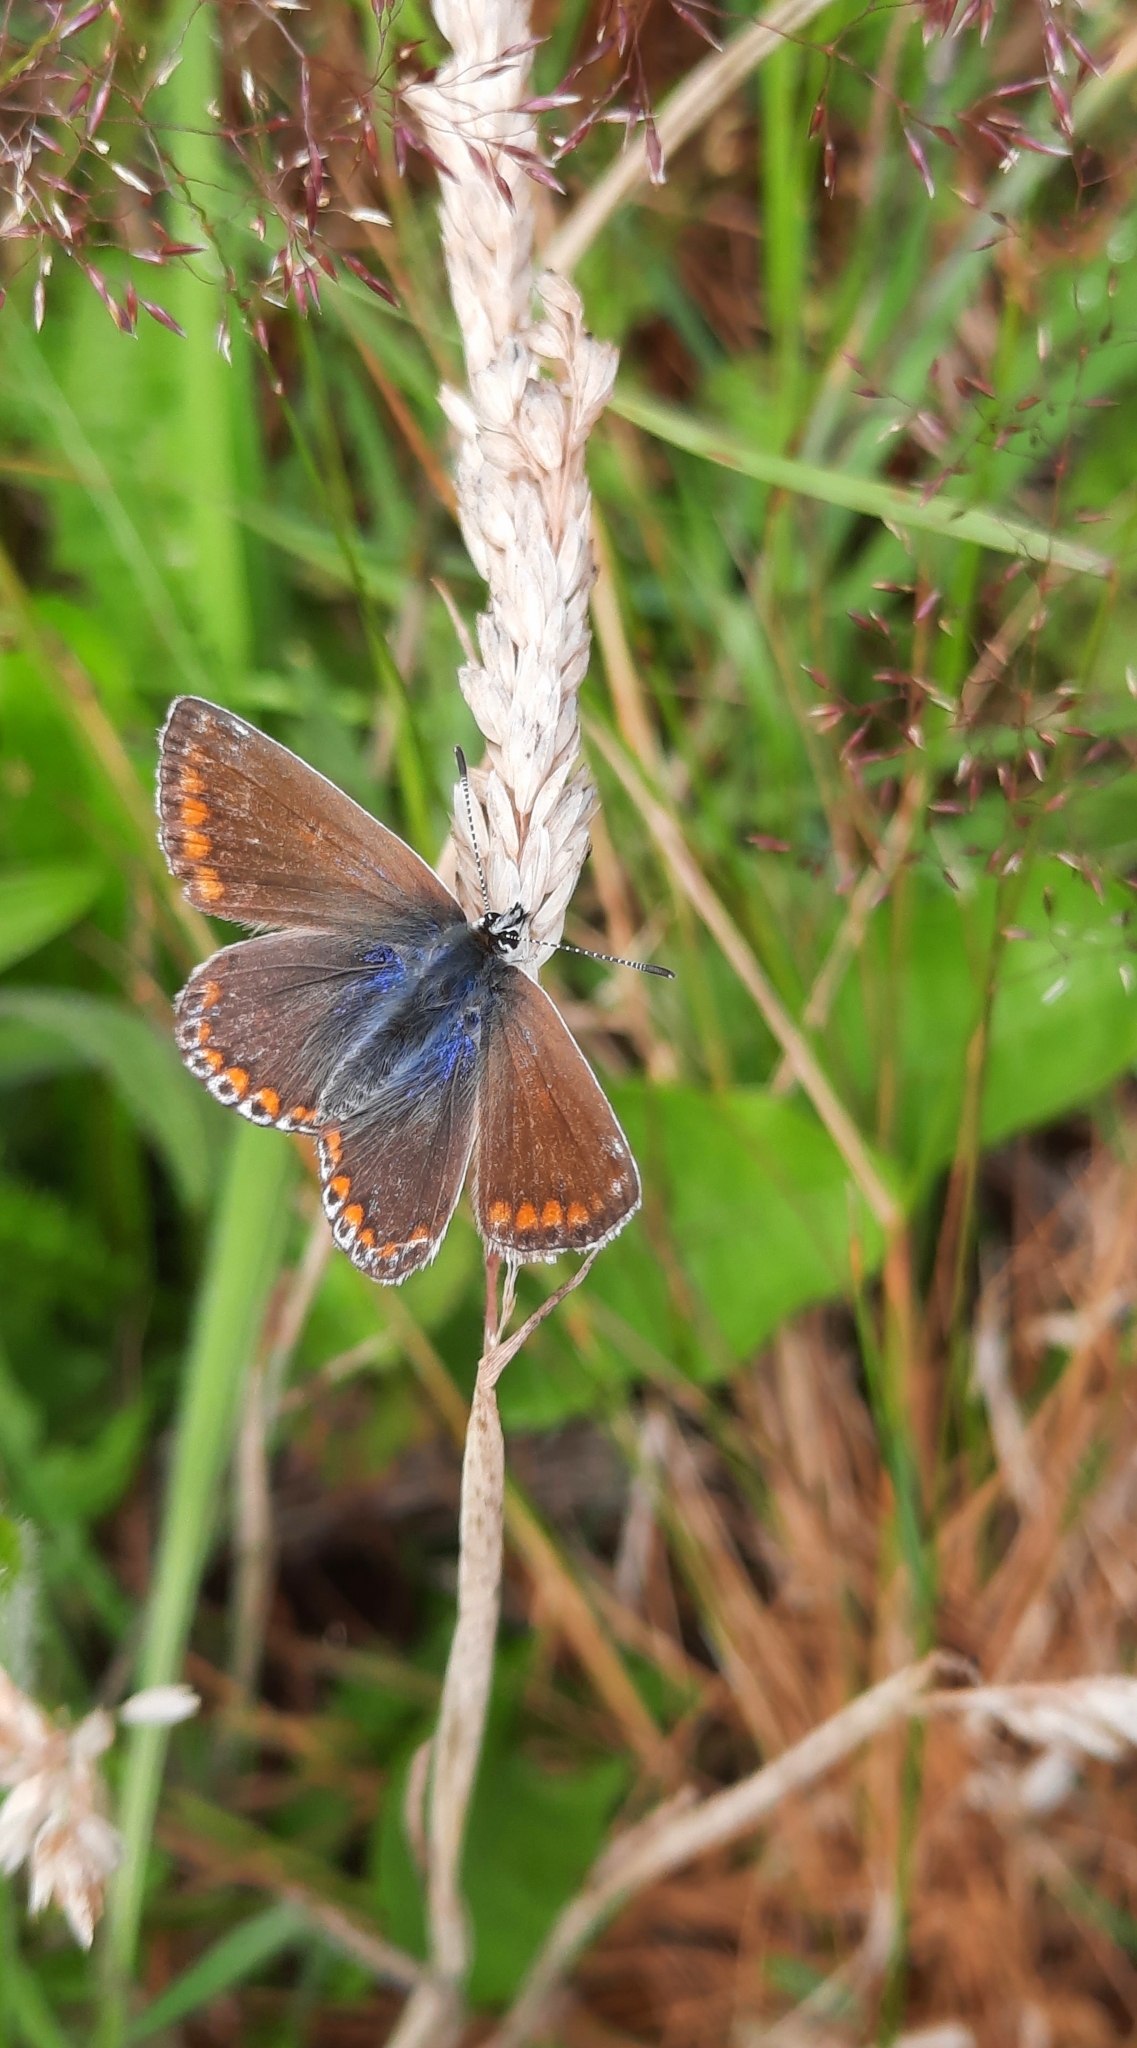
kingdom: Animalia
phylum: Arthropoda
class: Insecta
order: Lepidoptera
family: Lycaenidae
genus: Polyommatus
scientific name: Polyommatus icarus
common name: Common blue
